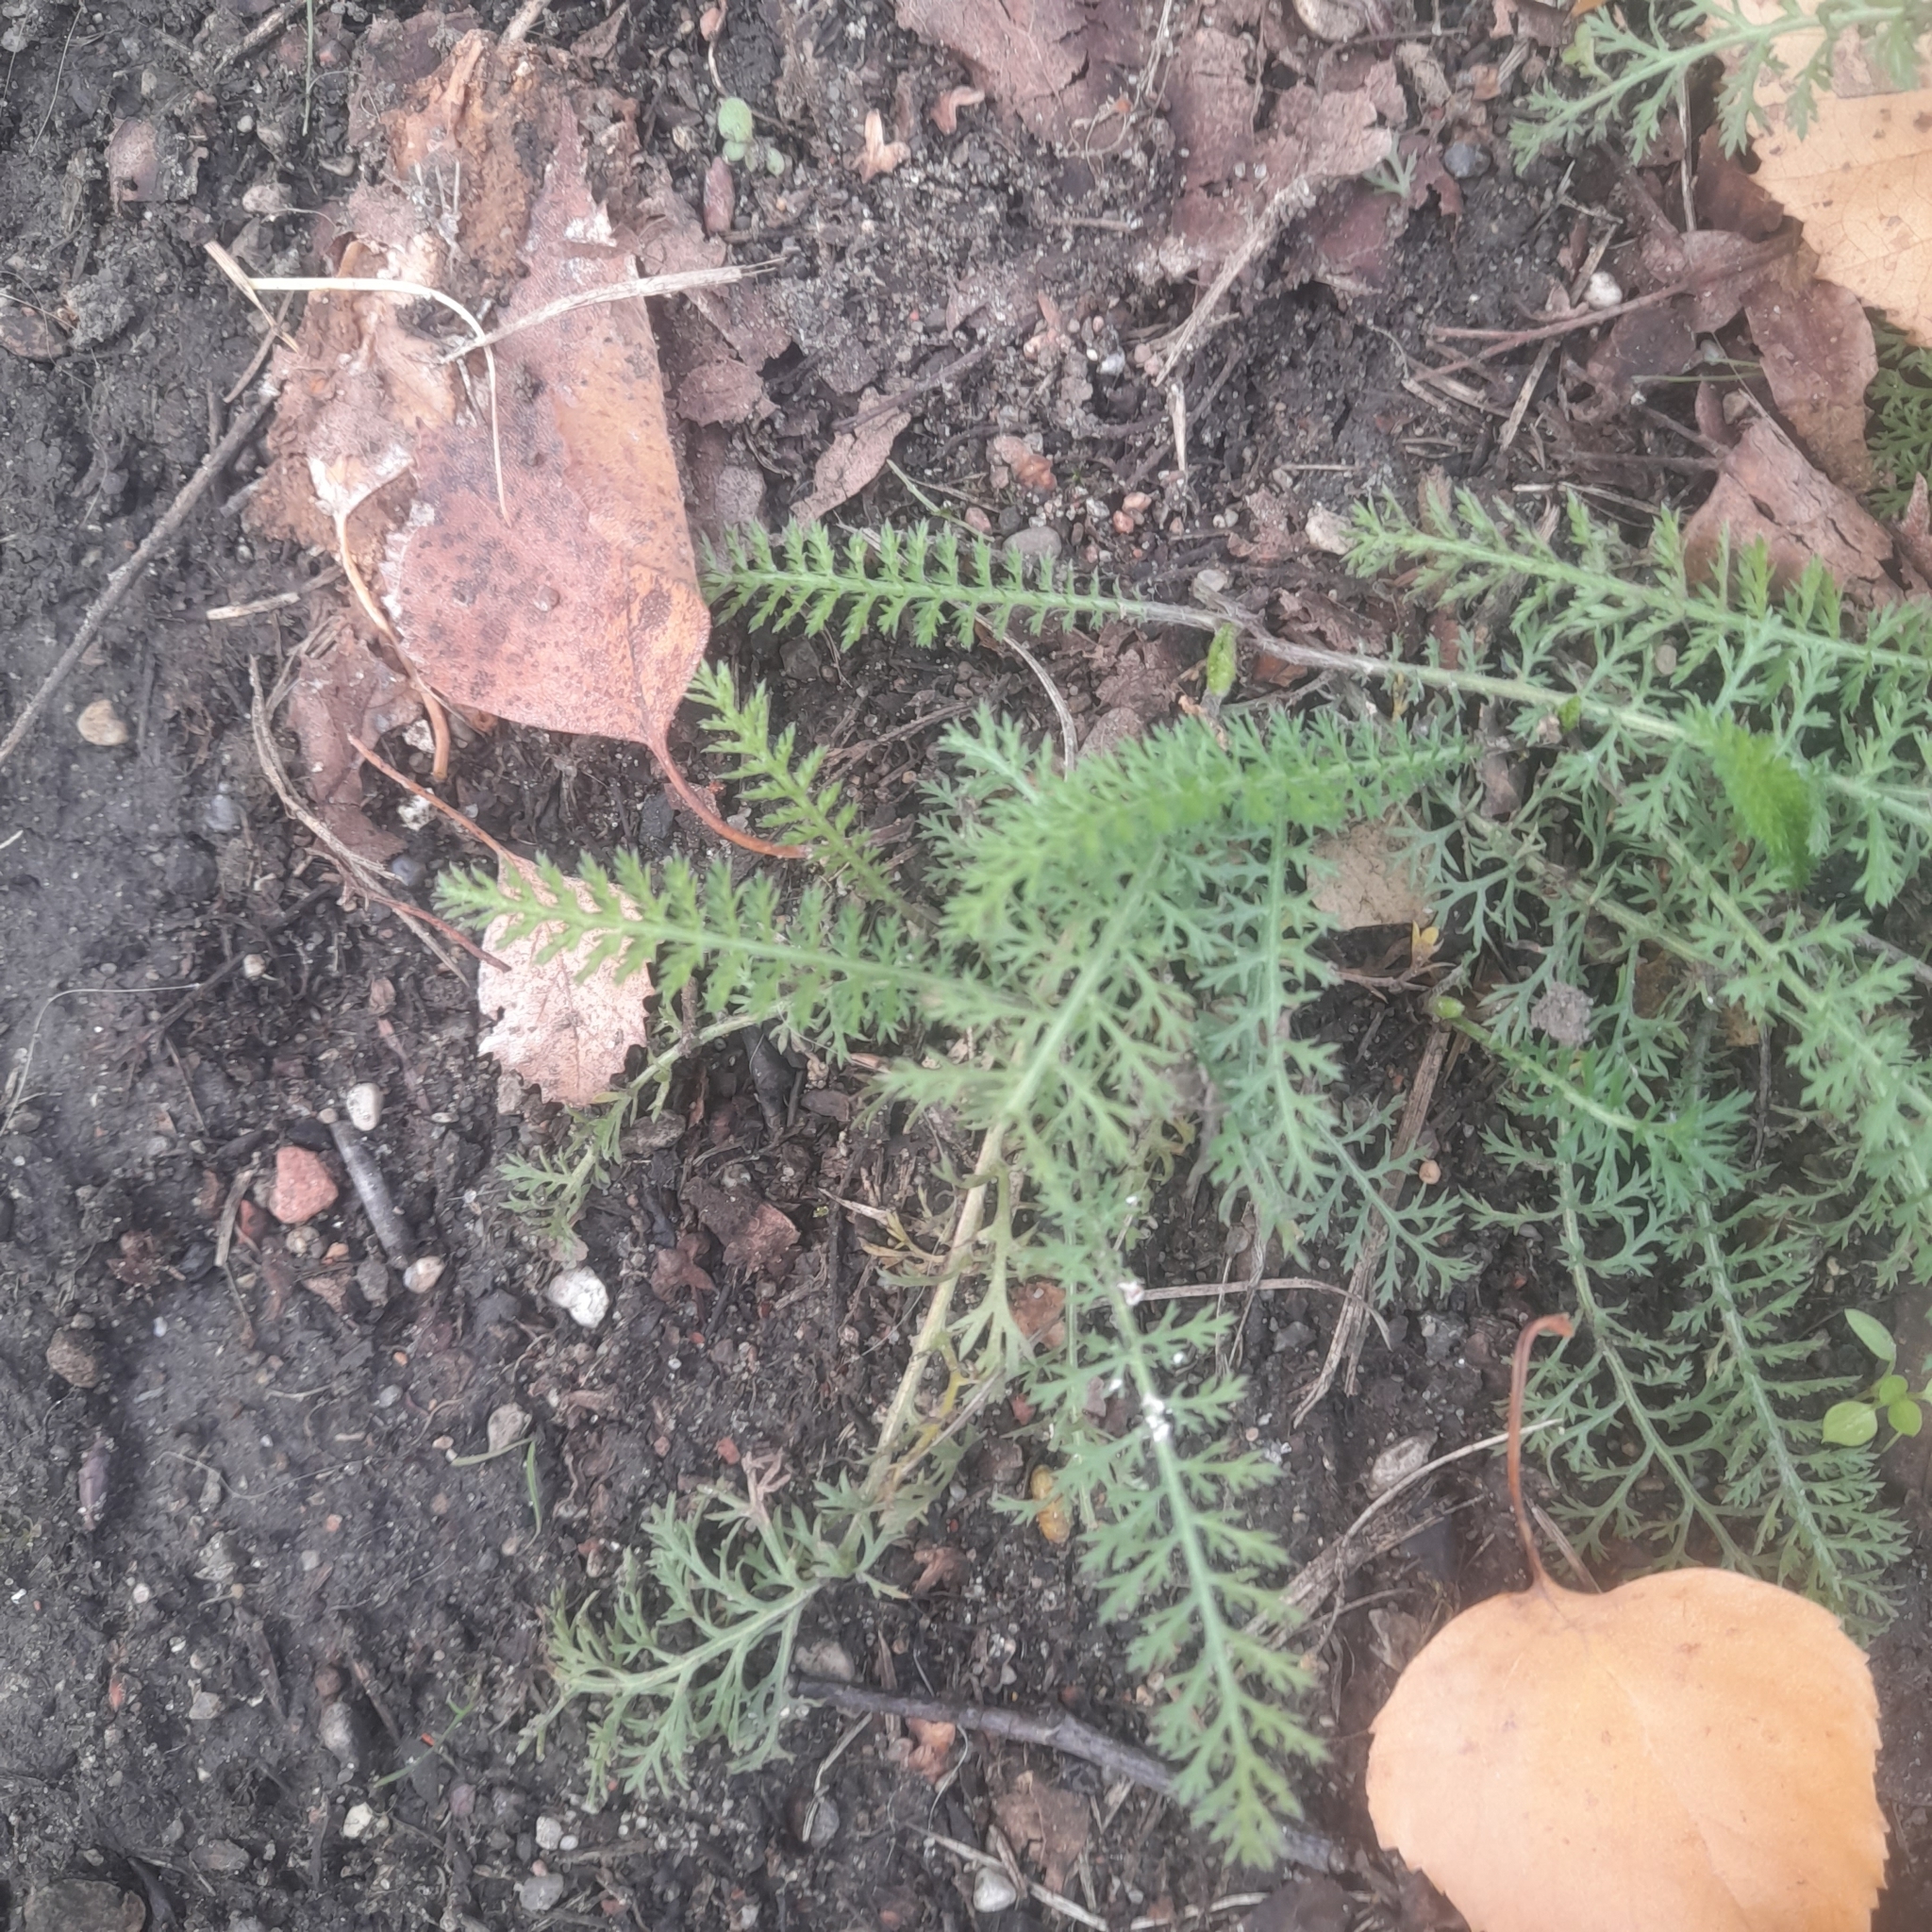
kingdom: Plantae
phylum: Tracheophyta
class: Magnoliopsida
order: Asterales
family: Asteraceae
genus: Achillea
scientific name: Achillea millefolium
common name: Yarrow
